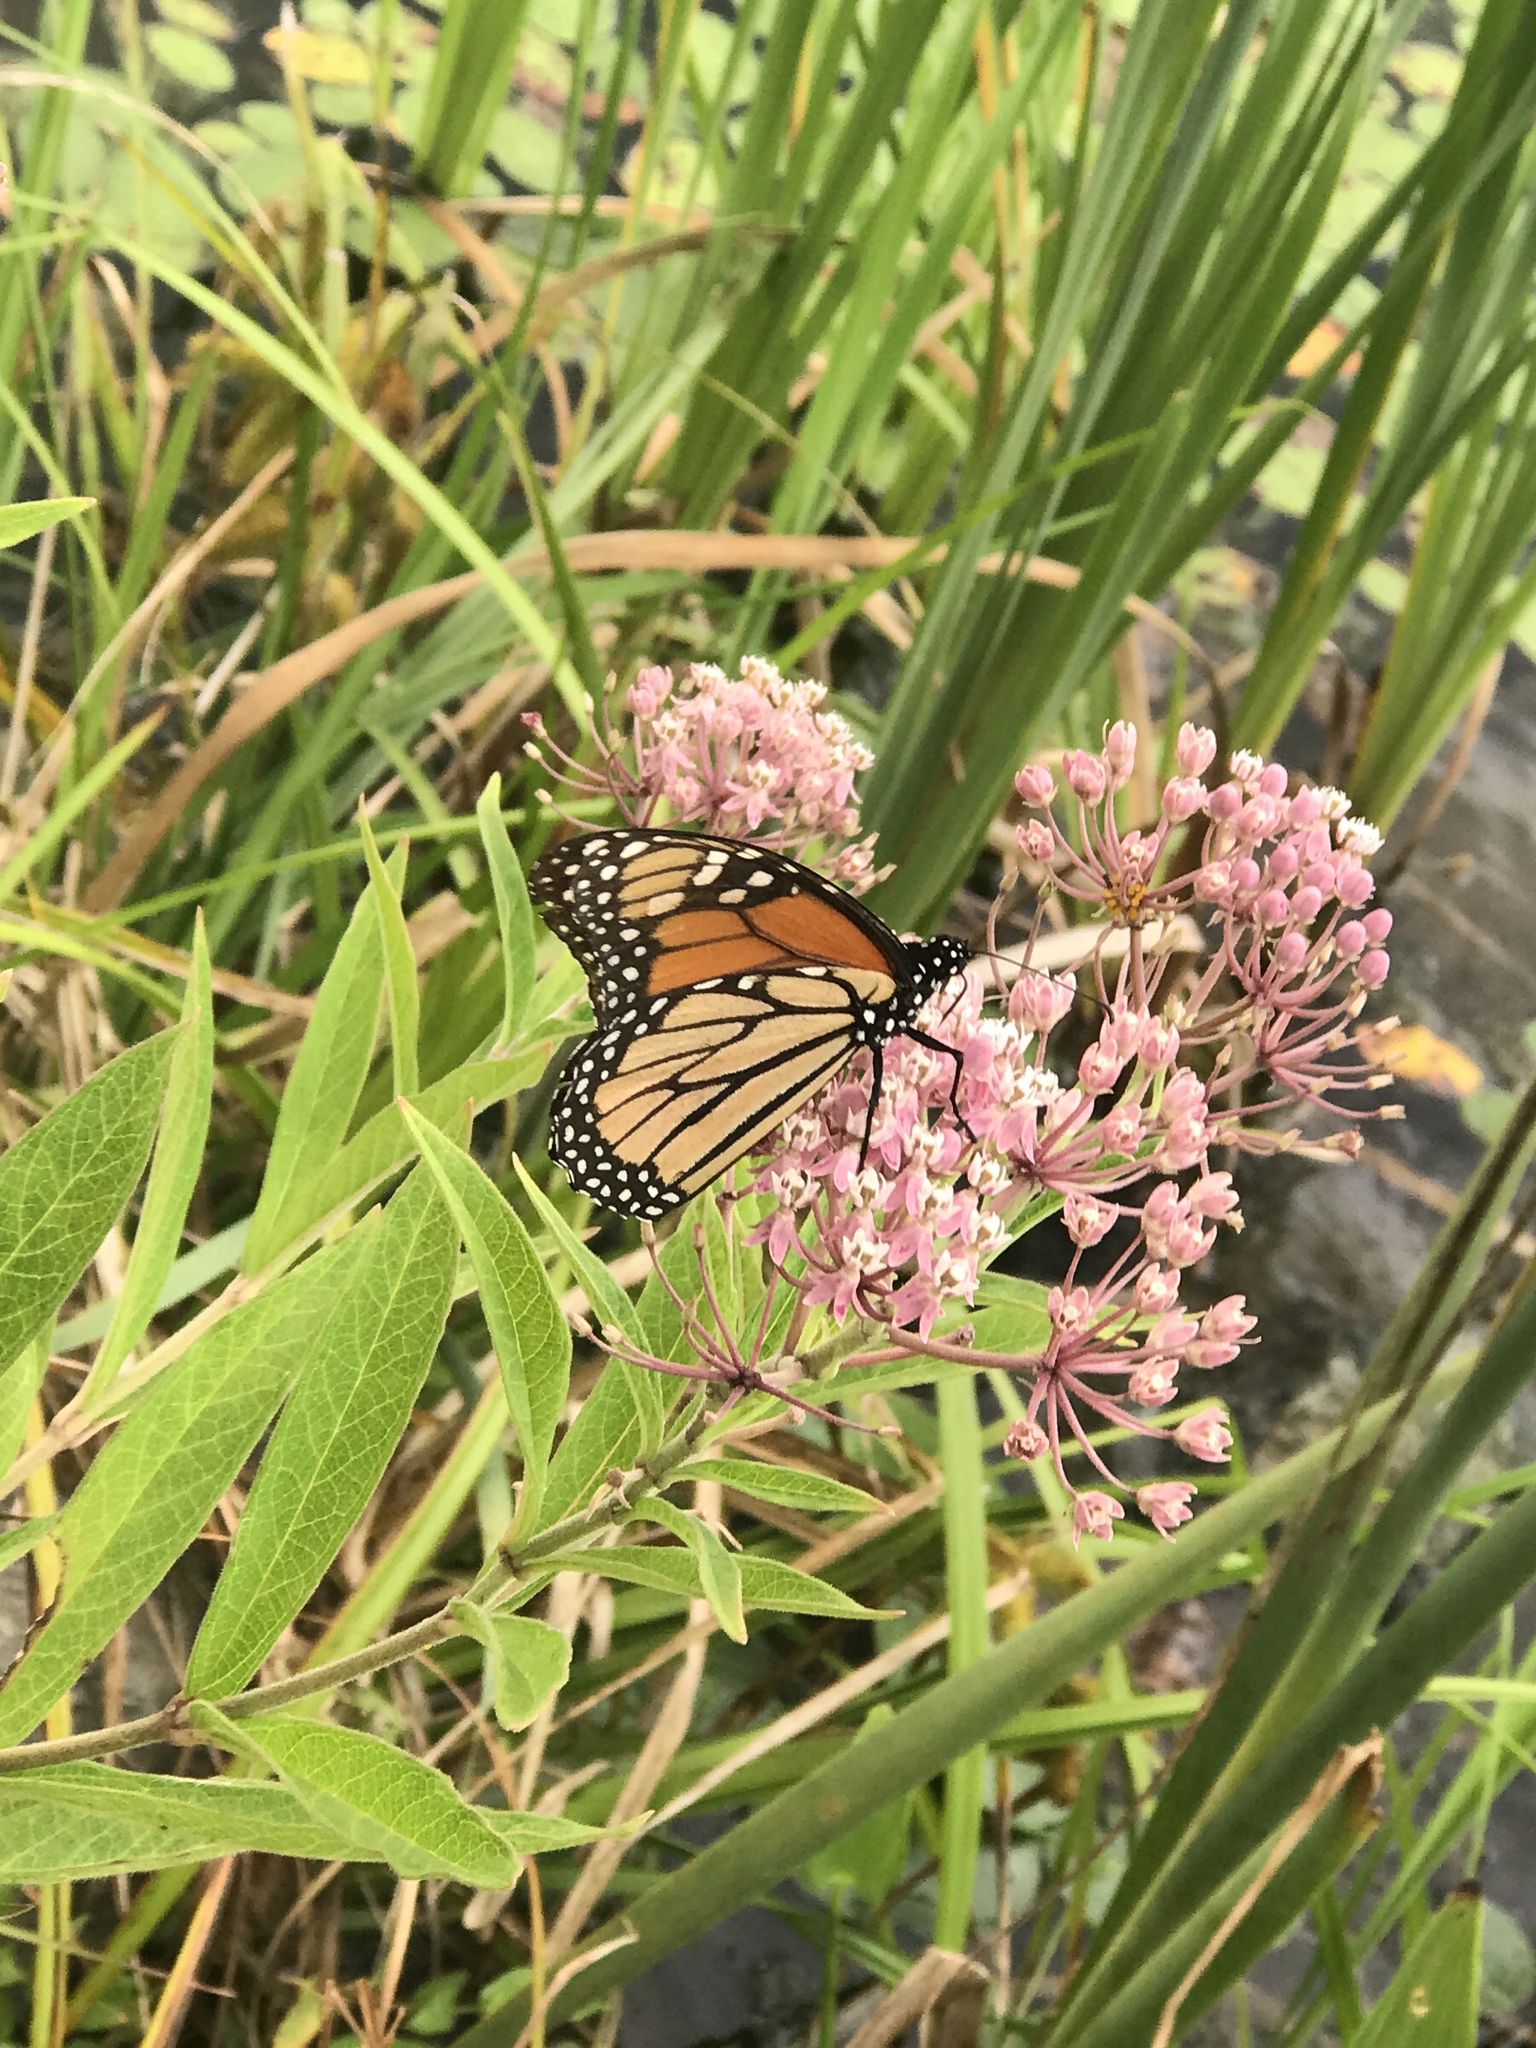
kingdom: Animalia
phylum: Arthropoda
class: Insecta
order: Lepidoptera
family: Nymphalidae
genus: Danaus
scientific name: Danaus plexippus
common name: Monarch
